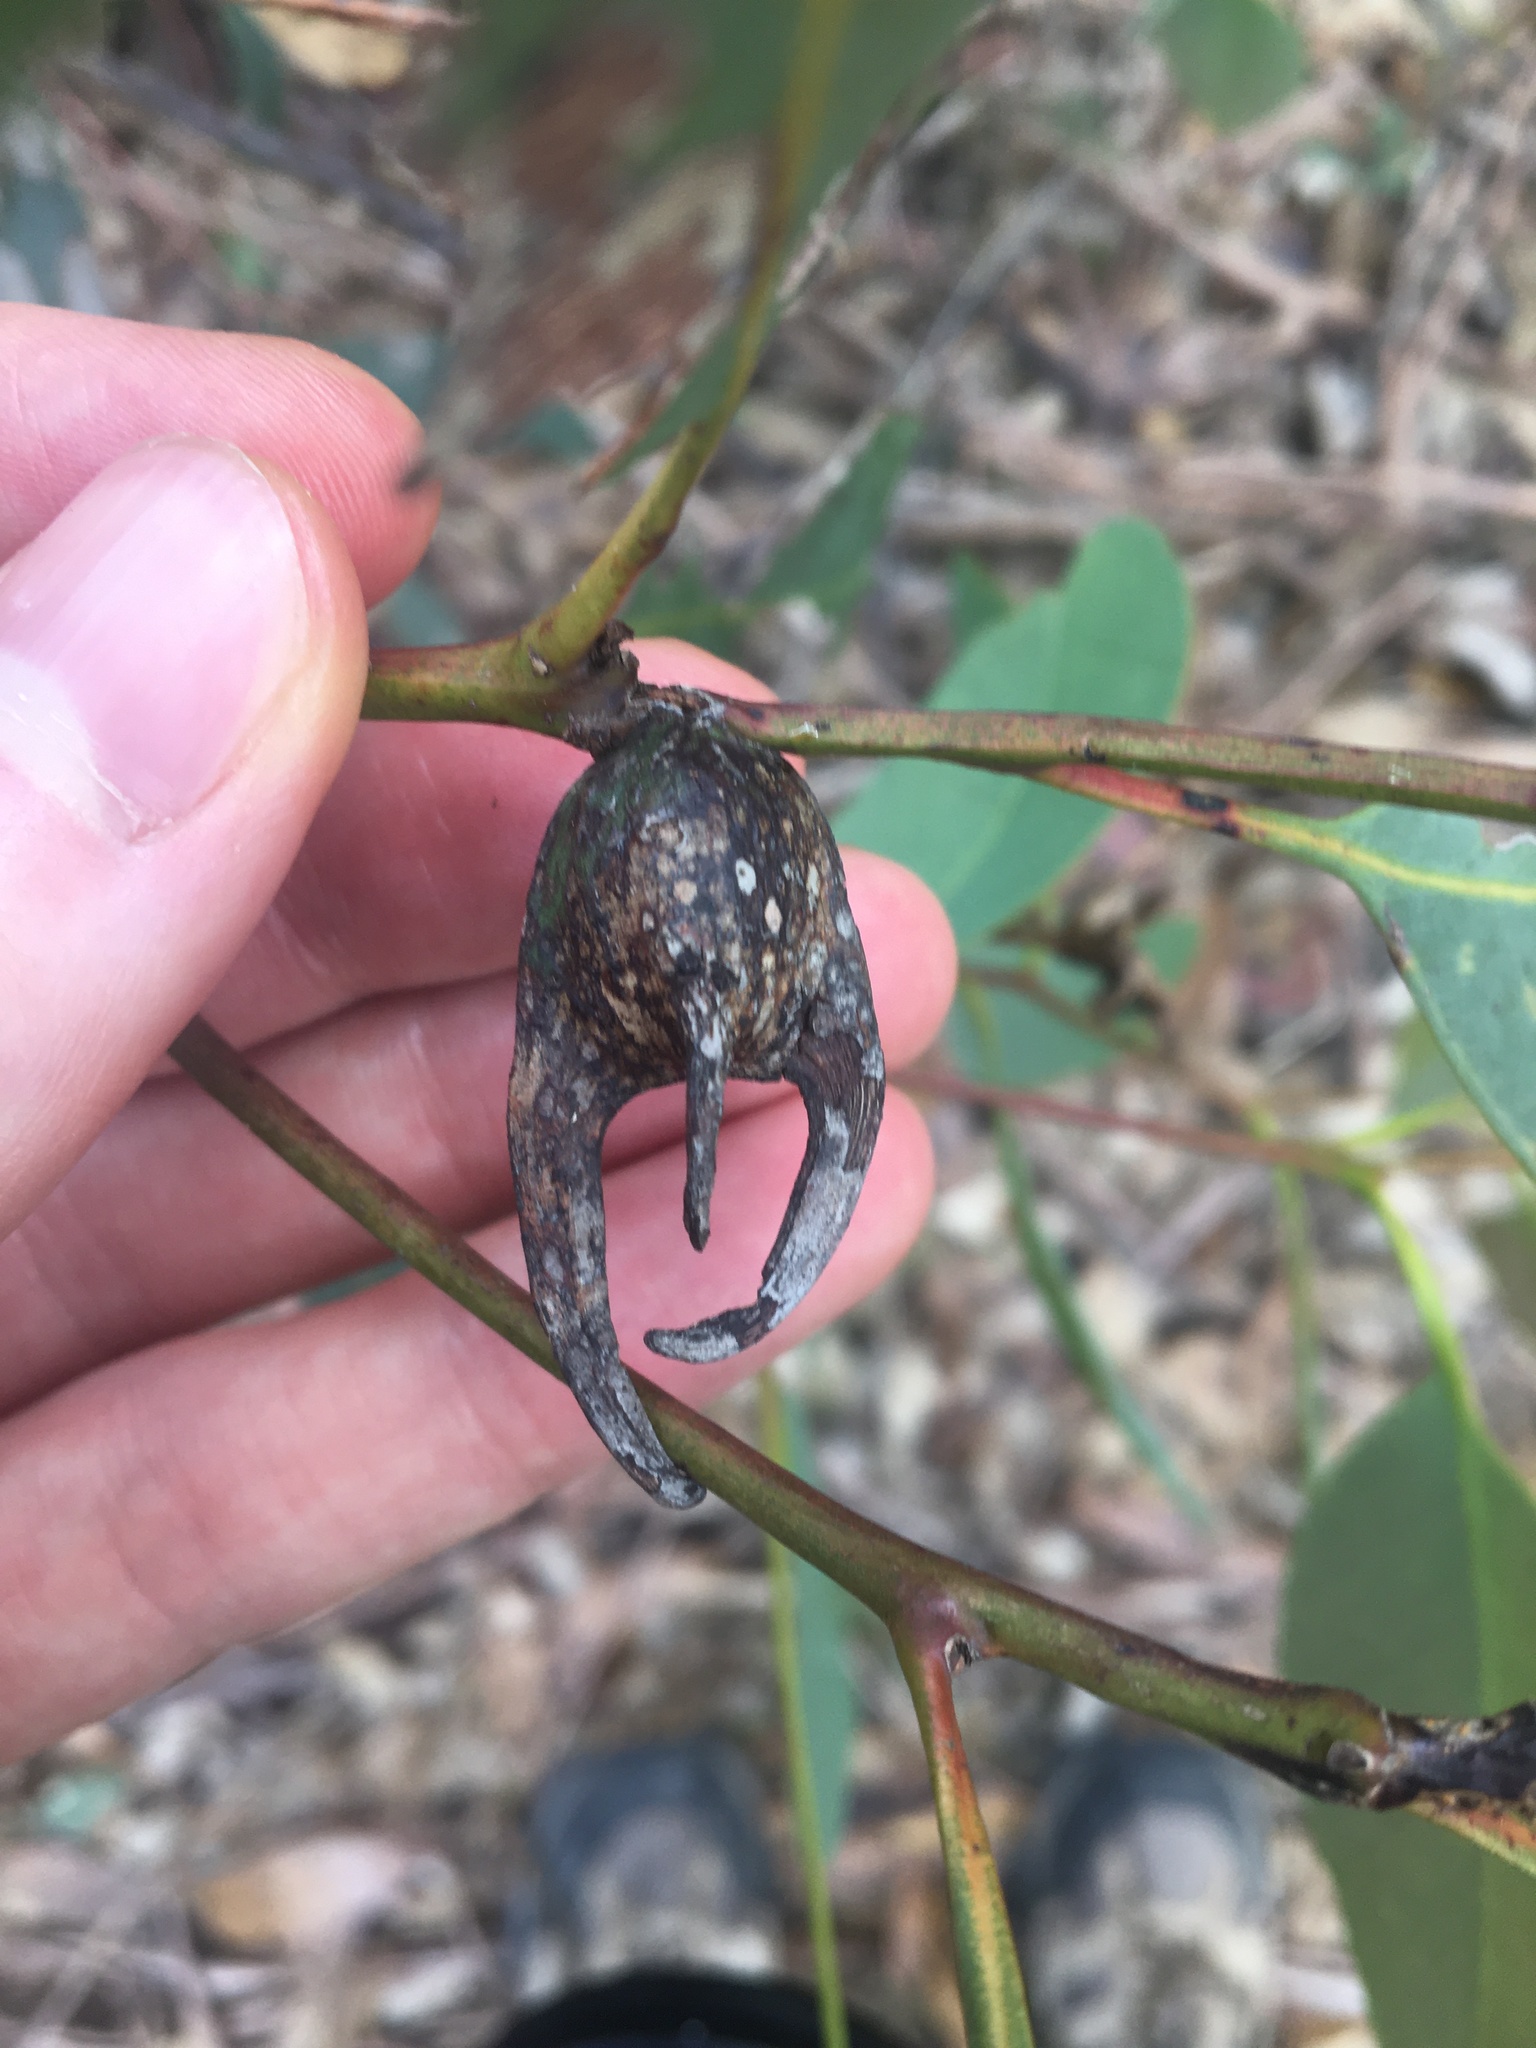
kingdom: Animalia
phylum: Arthropoda
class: Insecta
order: Hemiptera
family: Eriococcidae
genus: Apiomorpha
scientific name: Apiomorpha munita
